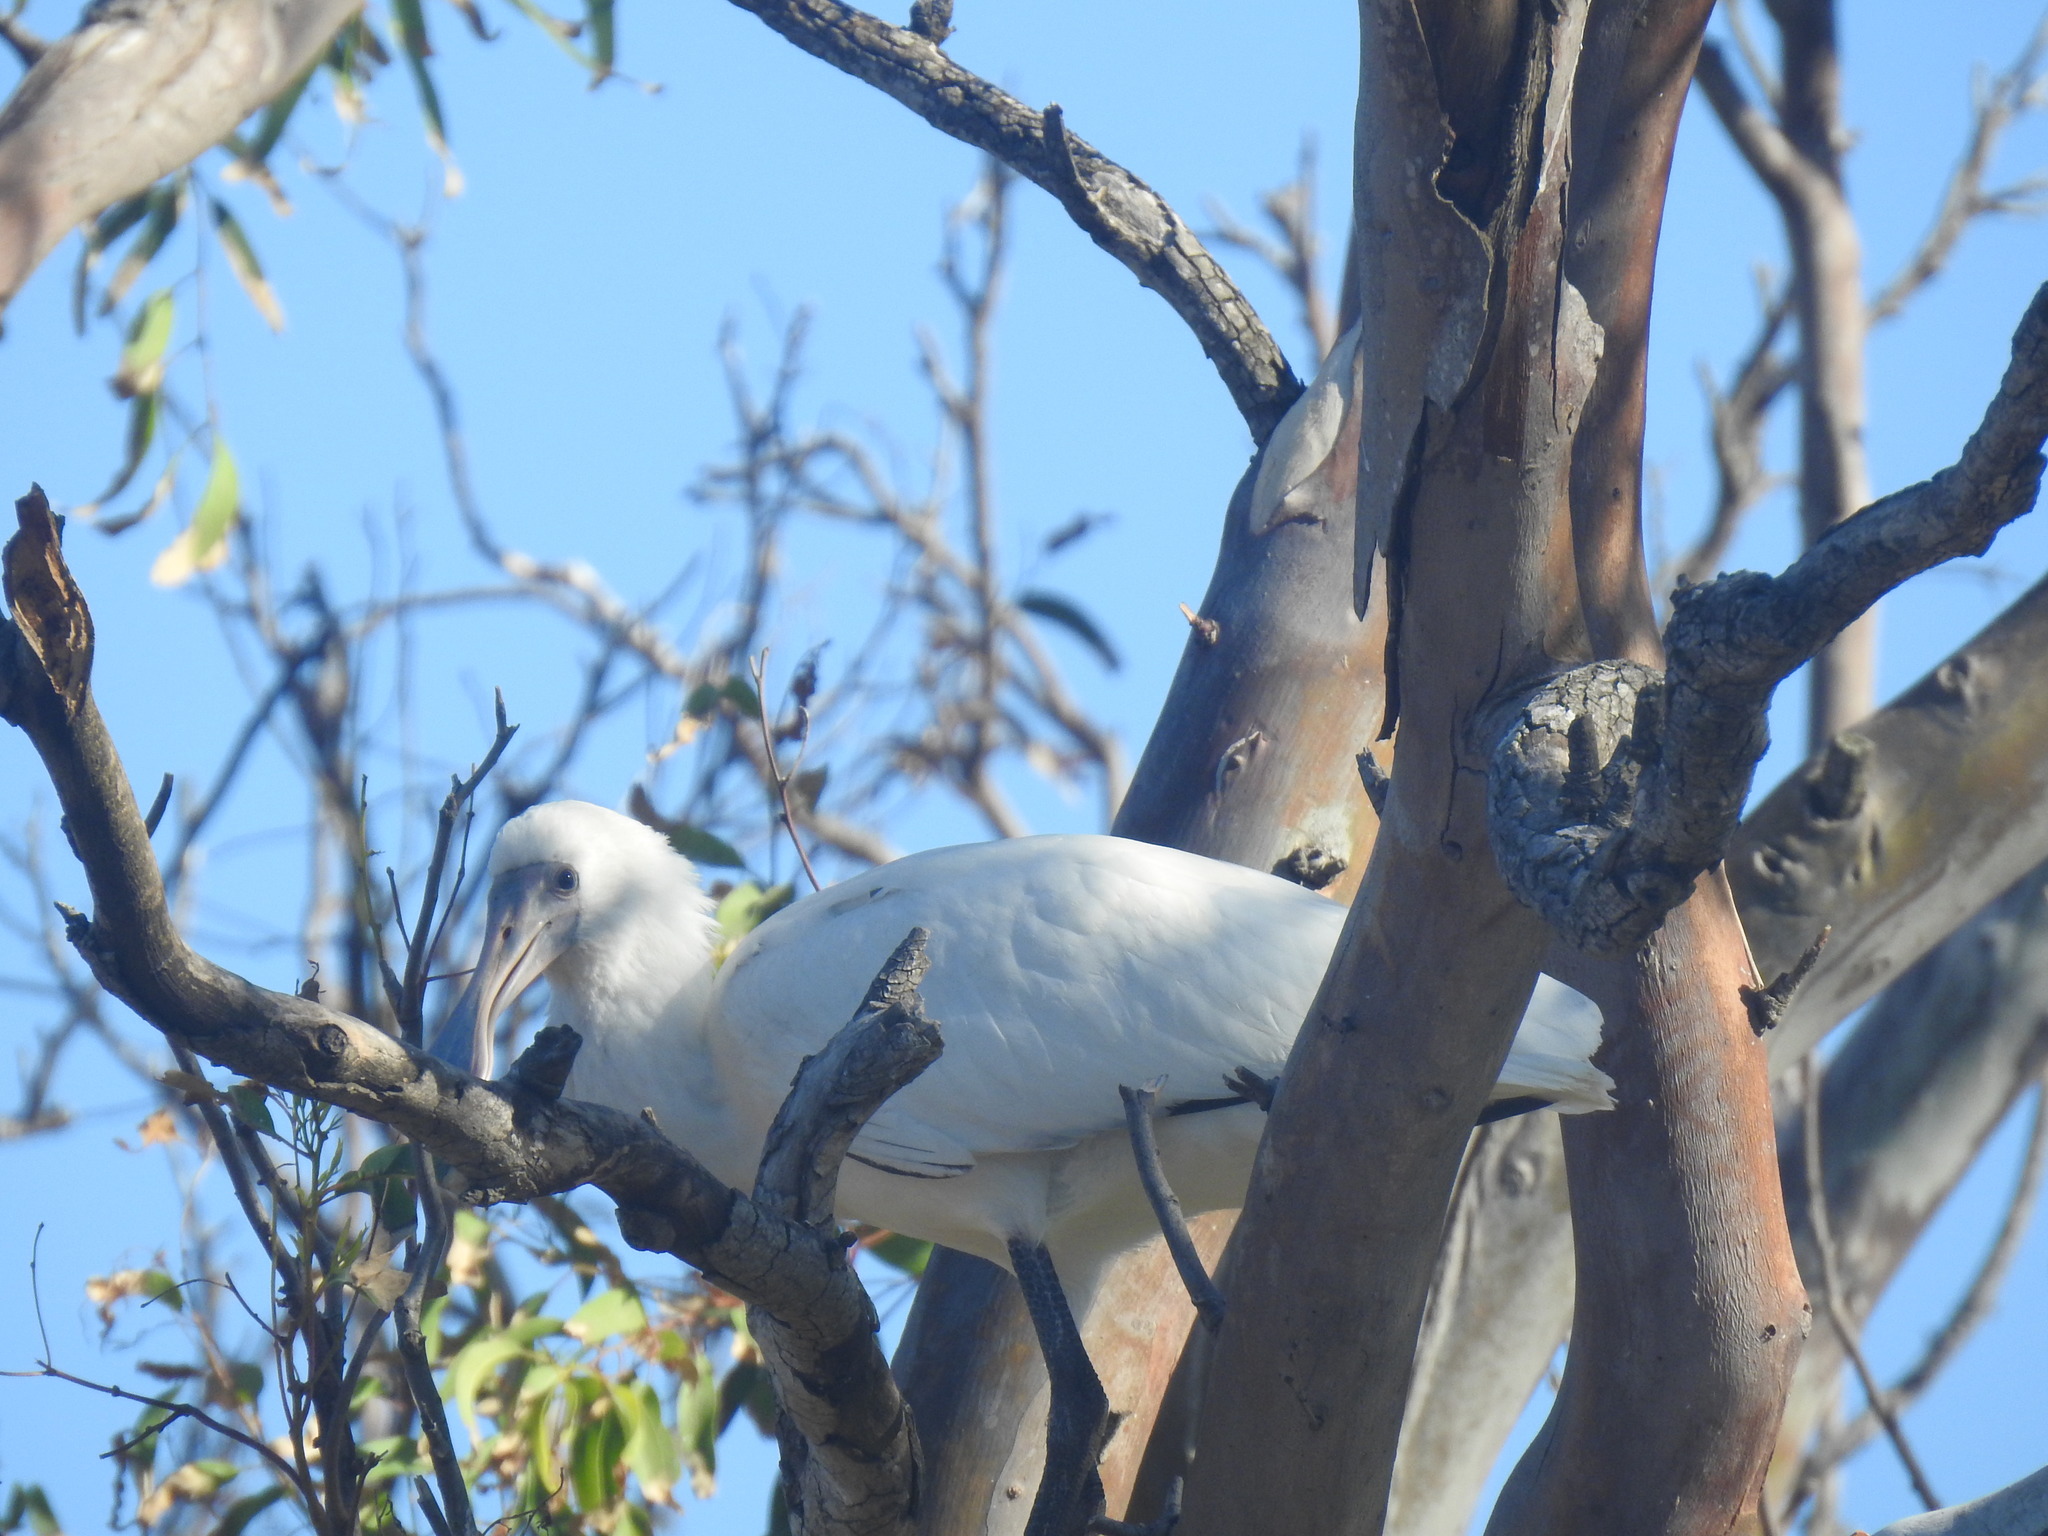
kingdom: Animalia
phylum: Chordata
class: Aves
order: Pelecaniformes
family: Threskiornithidae
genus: Platalea
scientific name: Platalea alba
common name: African spoonbill
